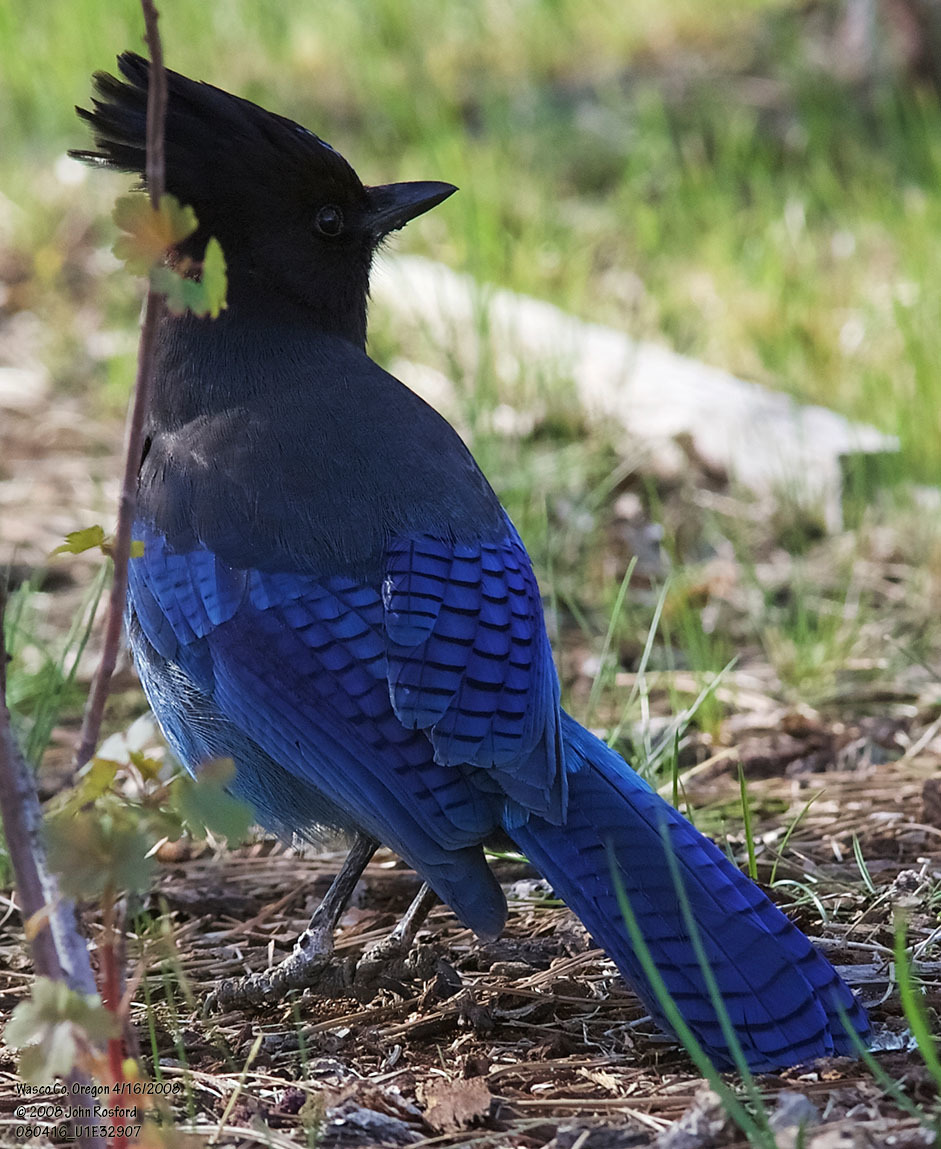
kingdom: Animalia
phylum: Chordata
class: Aves
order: Passeriformes
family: Corvidae
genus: Cyanocitta
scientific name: Cyanocitta stelleri
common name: Steller's jay
